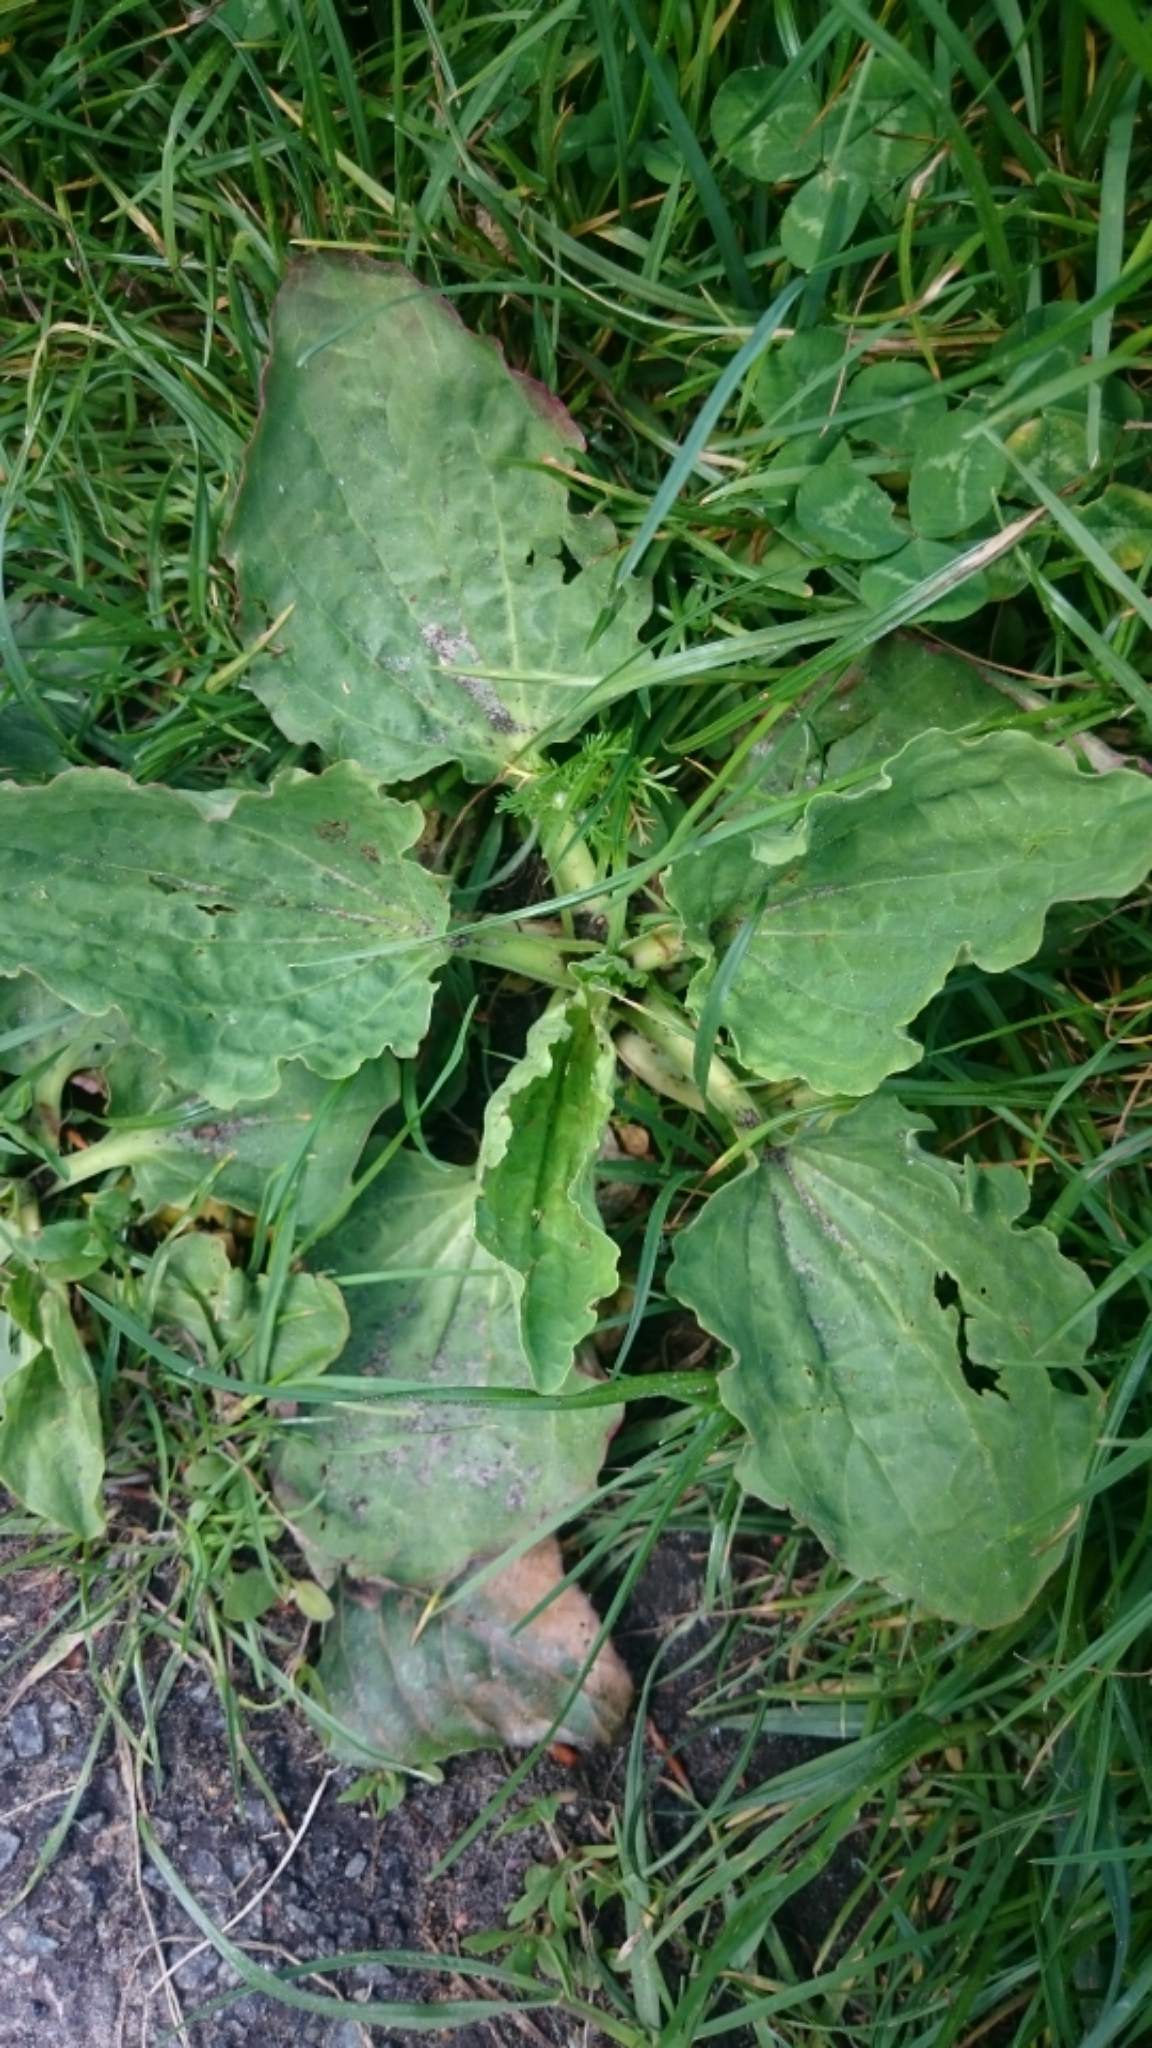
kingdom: Plantae
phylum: Tracheophyta
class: Magnoliopsida
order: Lamiales
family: Plantaginaceae
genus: Plantago
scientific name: Plantago major
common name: Common plantain
